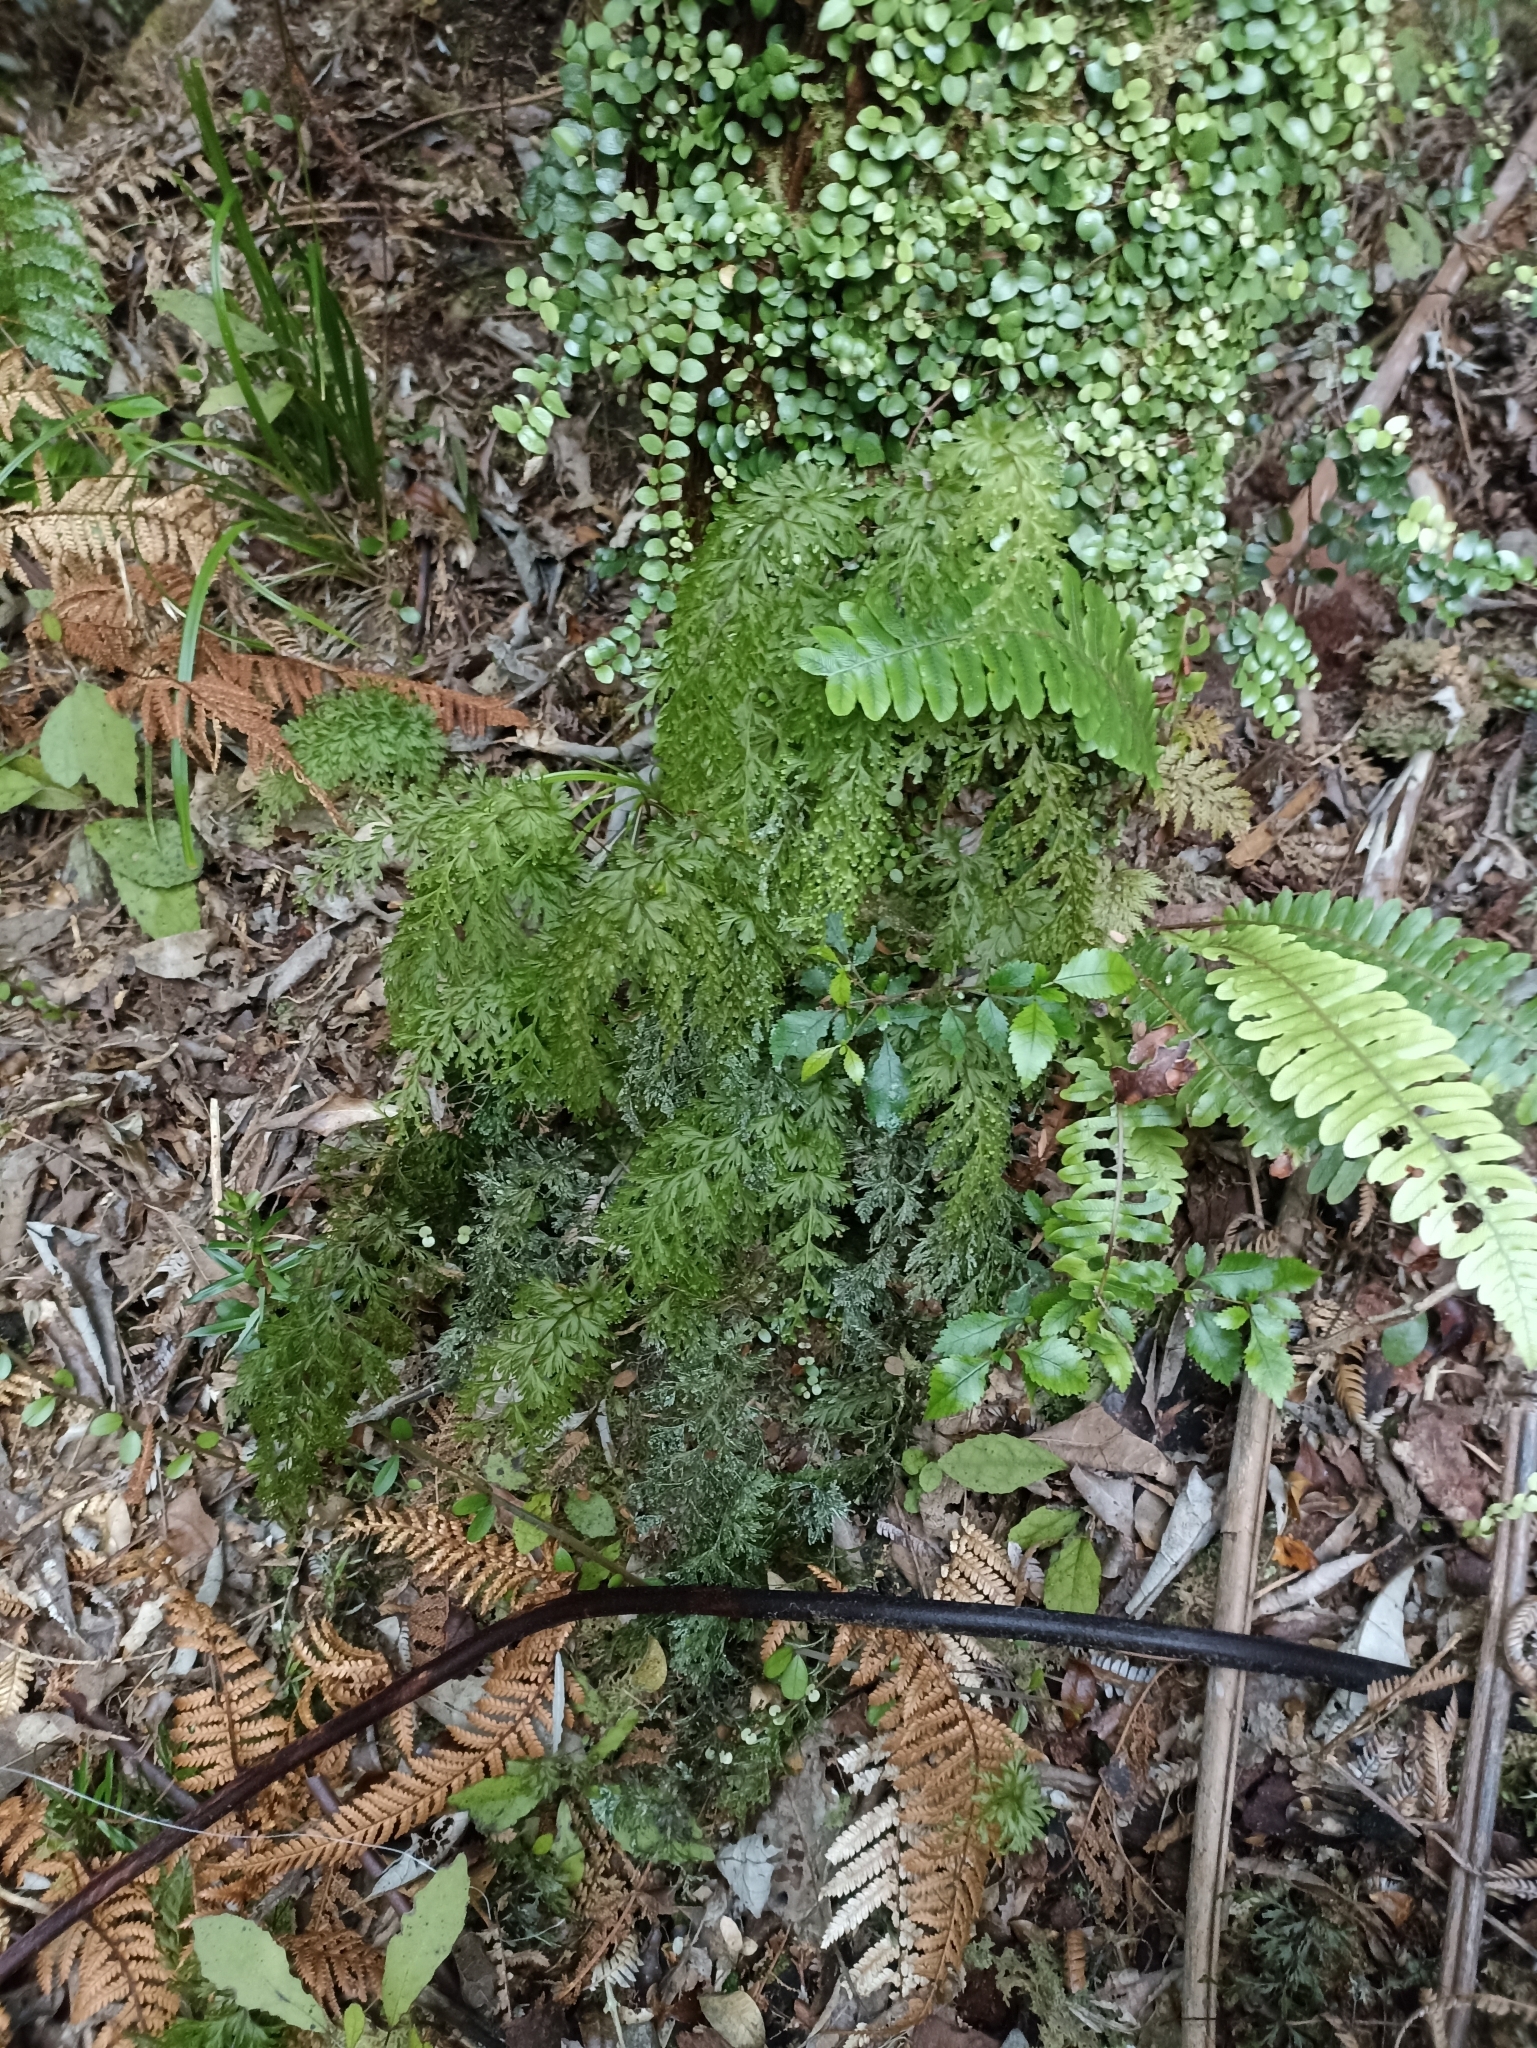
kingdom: Plantae
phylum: Tracheophyta
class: Polypodiopsida
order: Hymenophyllales
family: Hymenophyllaceae
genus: Hymenophyllum
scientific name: Hymenophyllum demissum
